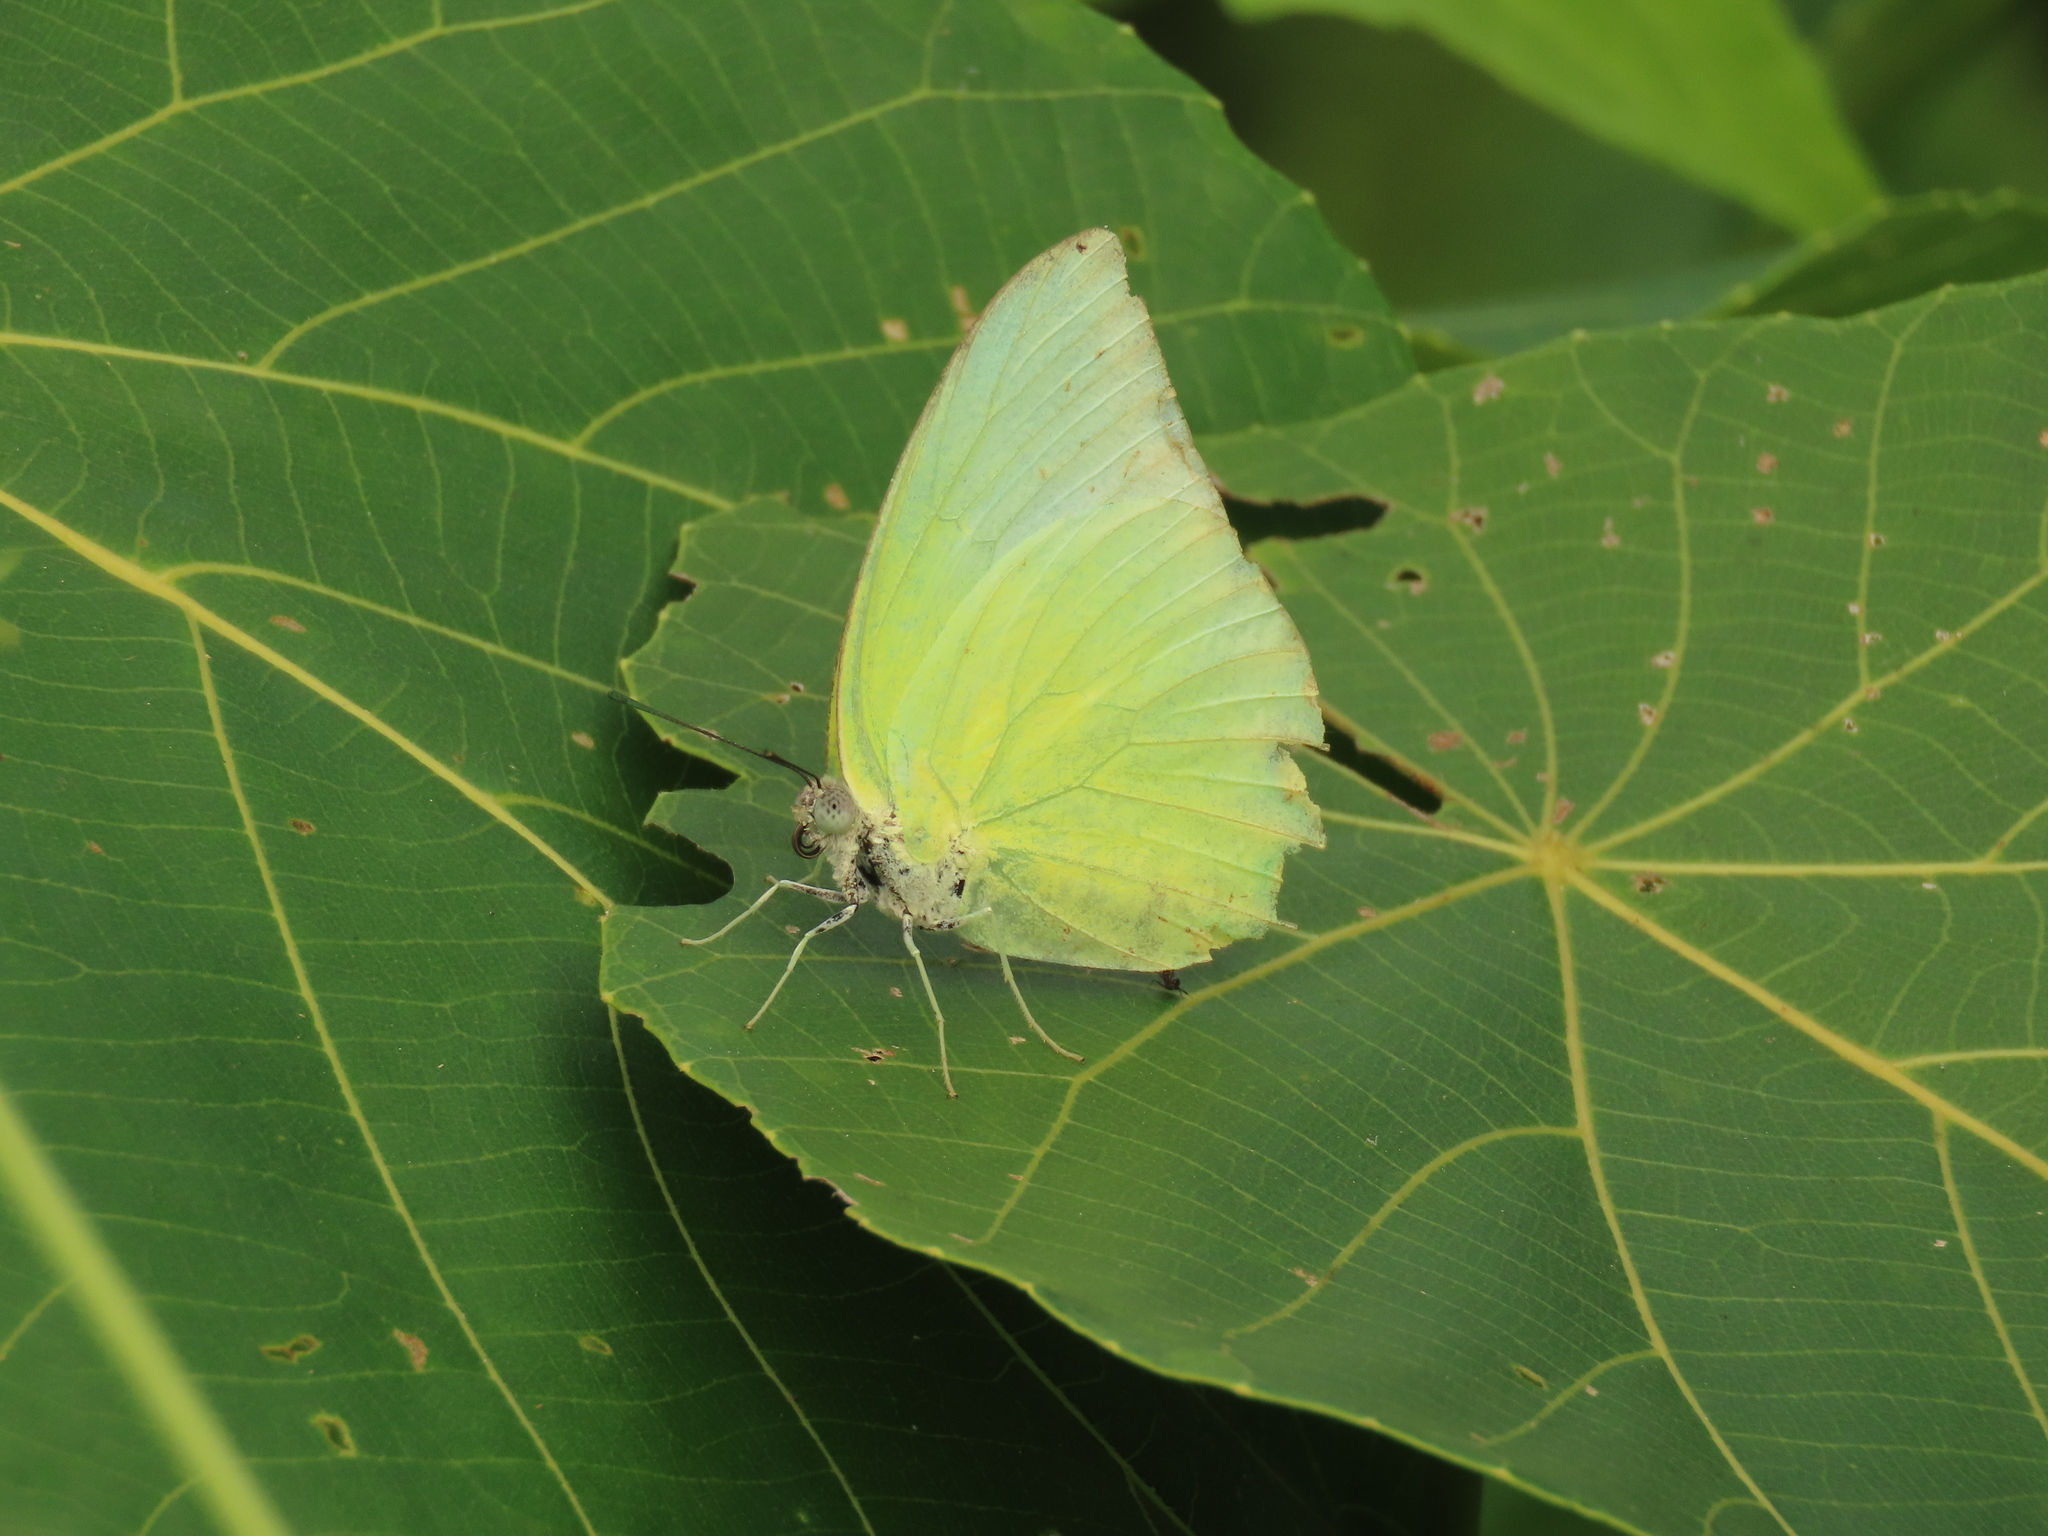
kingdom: Animalia
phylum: Arthropoda
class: Insecta
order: Lepidoptera
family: Pieridae
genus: Catopsilia
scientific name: Catopsilia pomona
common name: Common emigrant
